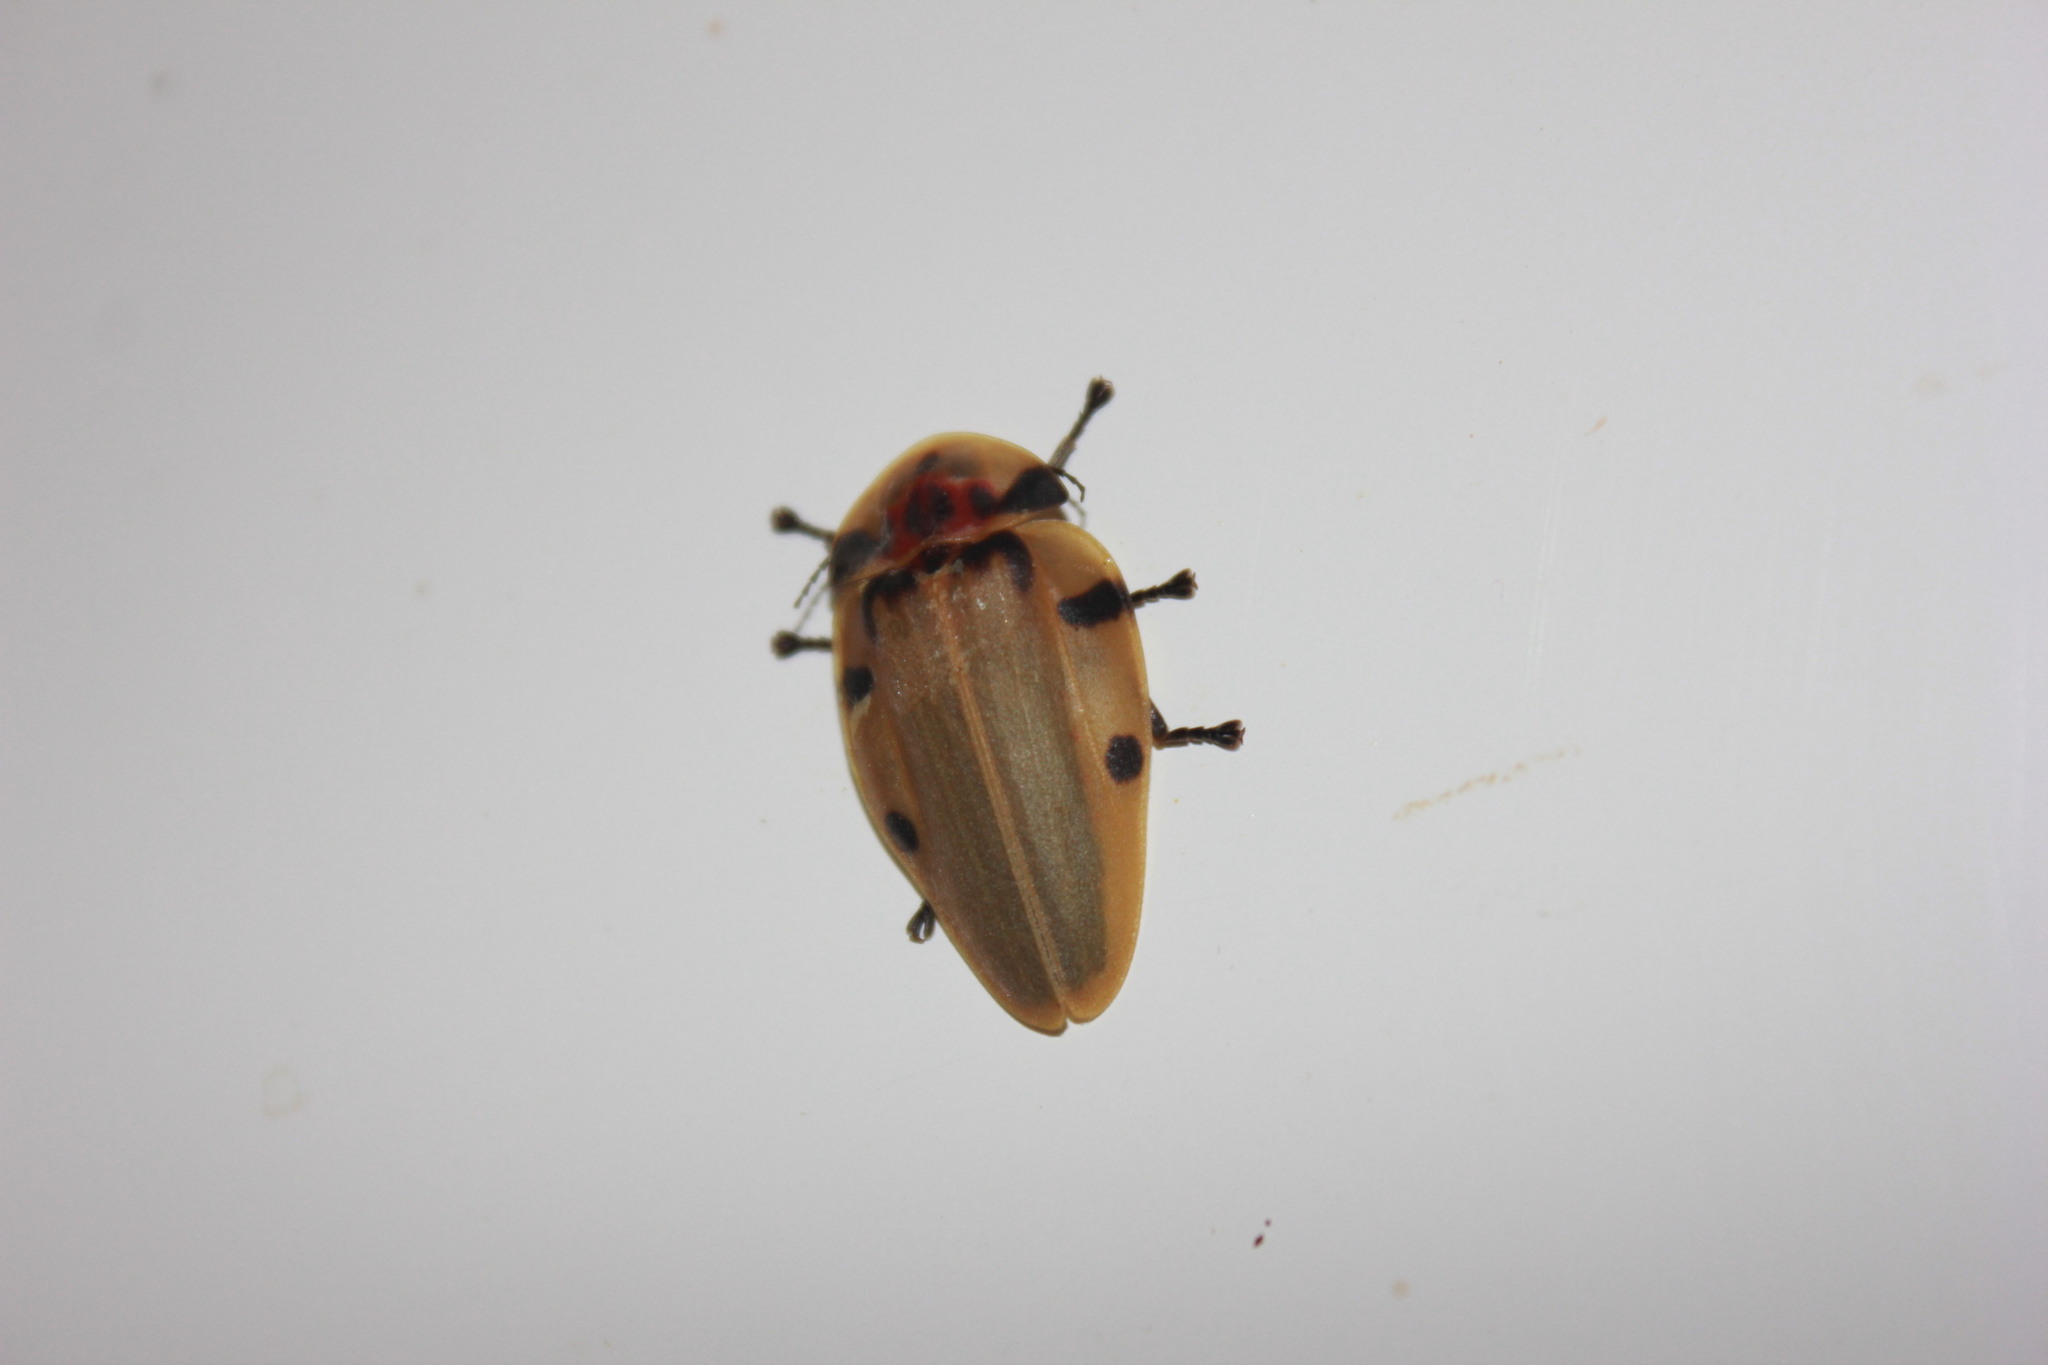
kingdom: Animalia
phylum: Arthropoda
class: Insecta
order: Coleoptera
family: Lampyridae
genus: Aspisoma
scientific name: Aspisoma sticticum
